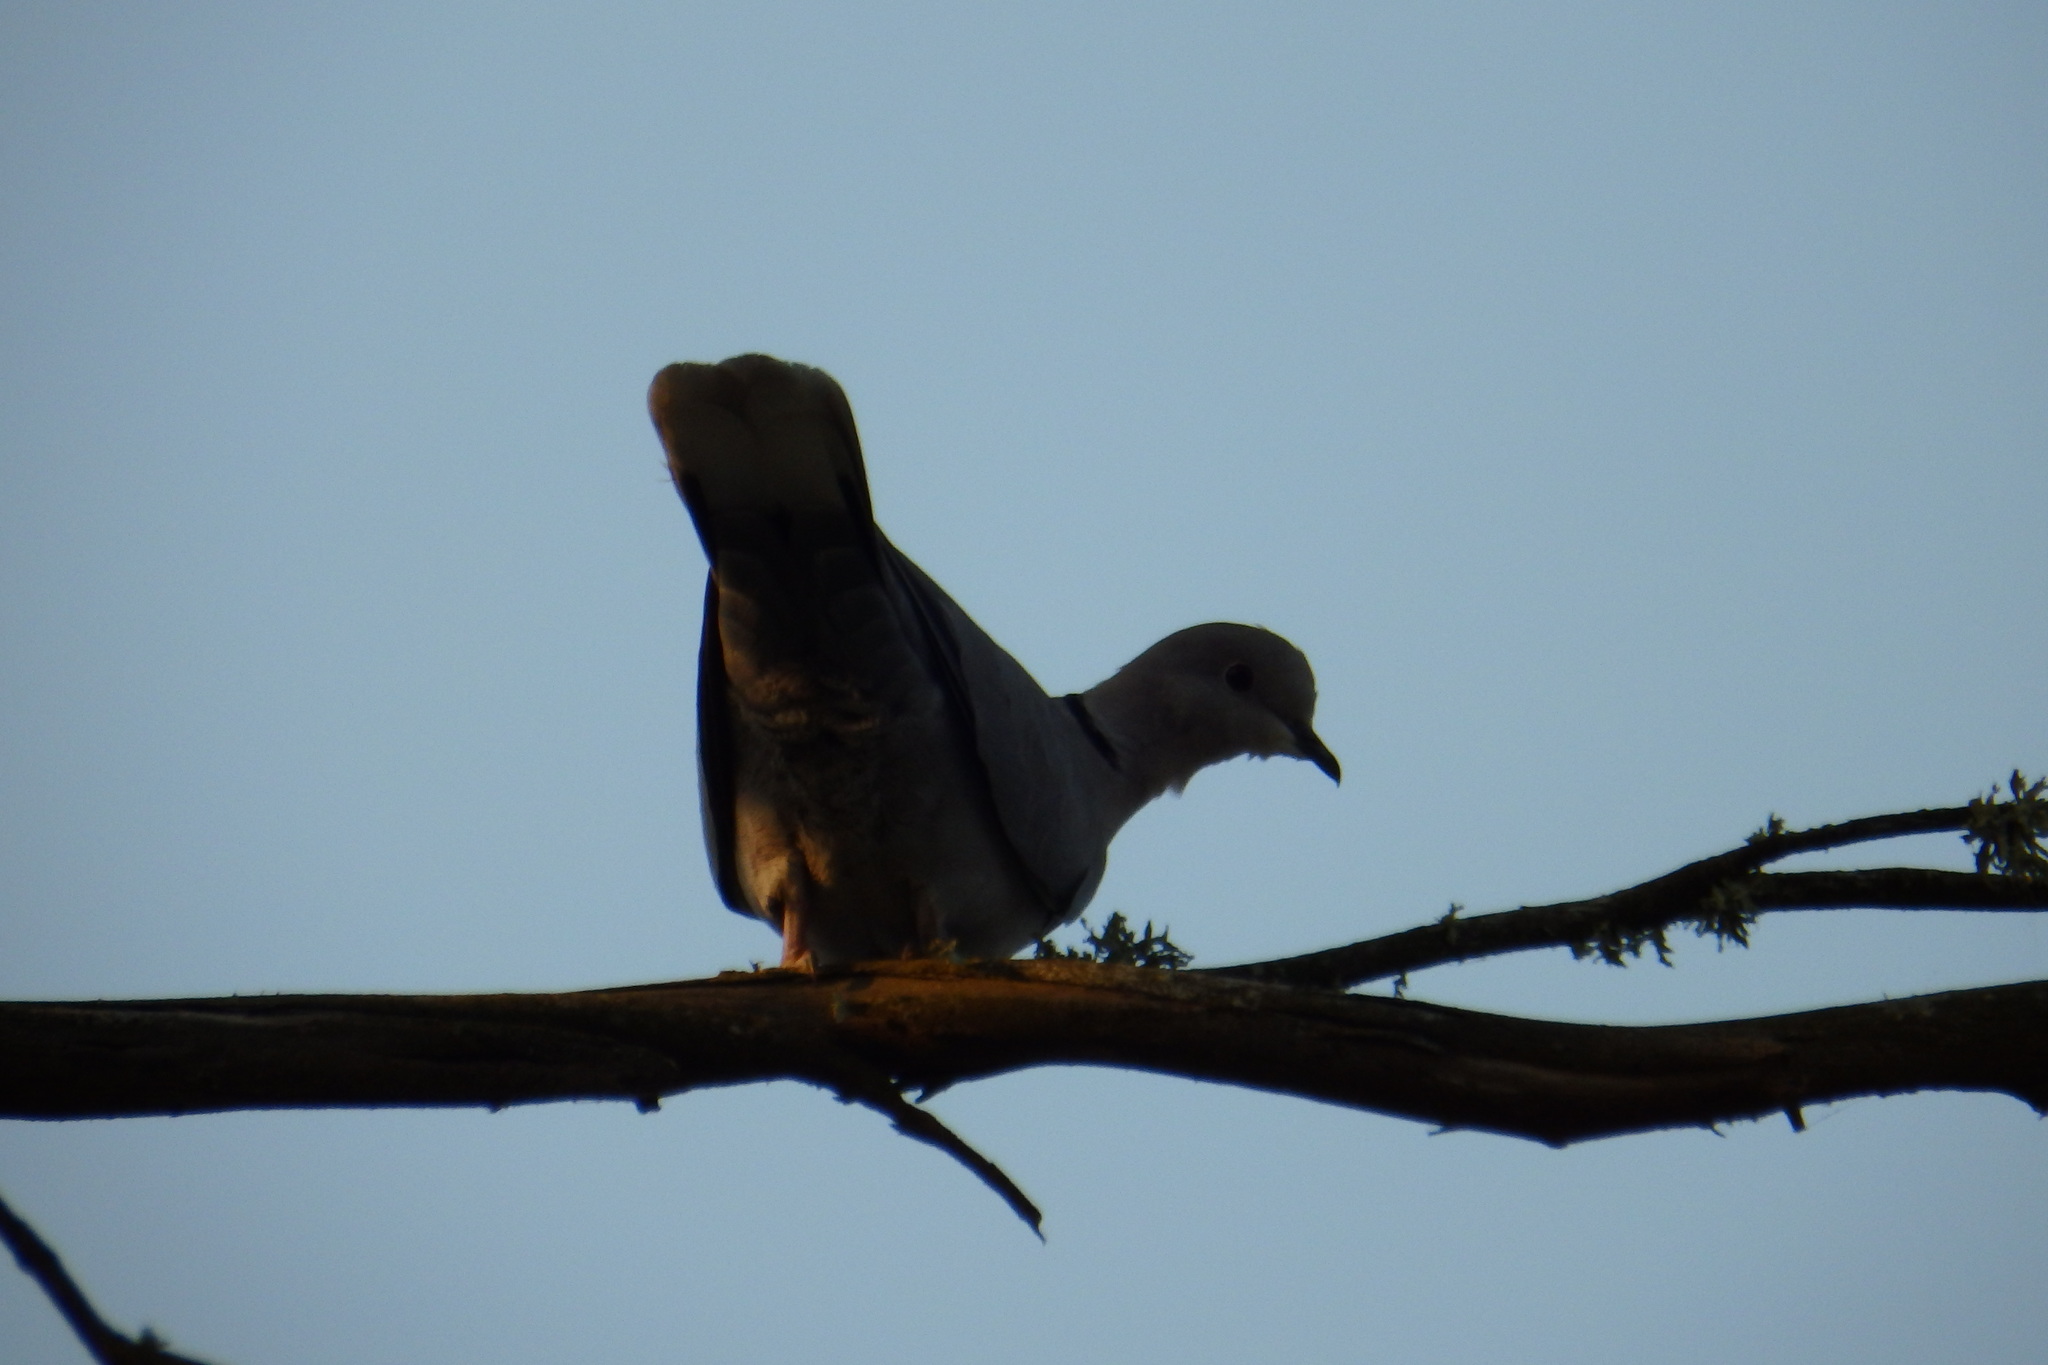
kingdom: Animalia
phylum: Chordata
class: Aves
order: Columbiformes
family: Columbidae
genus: Streptopelia
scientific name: Streptopelia decaocto
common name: Eurasian collared dove
